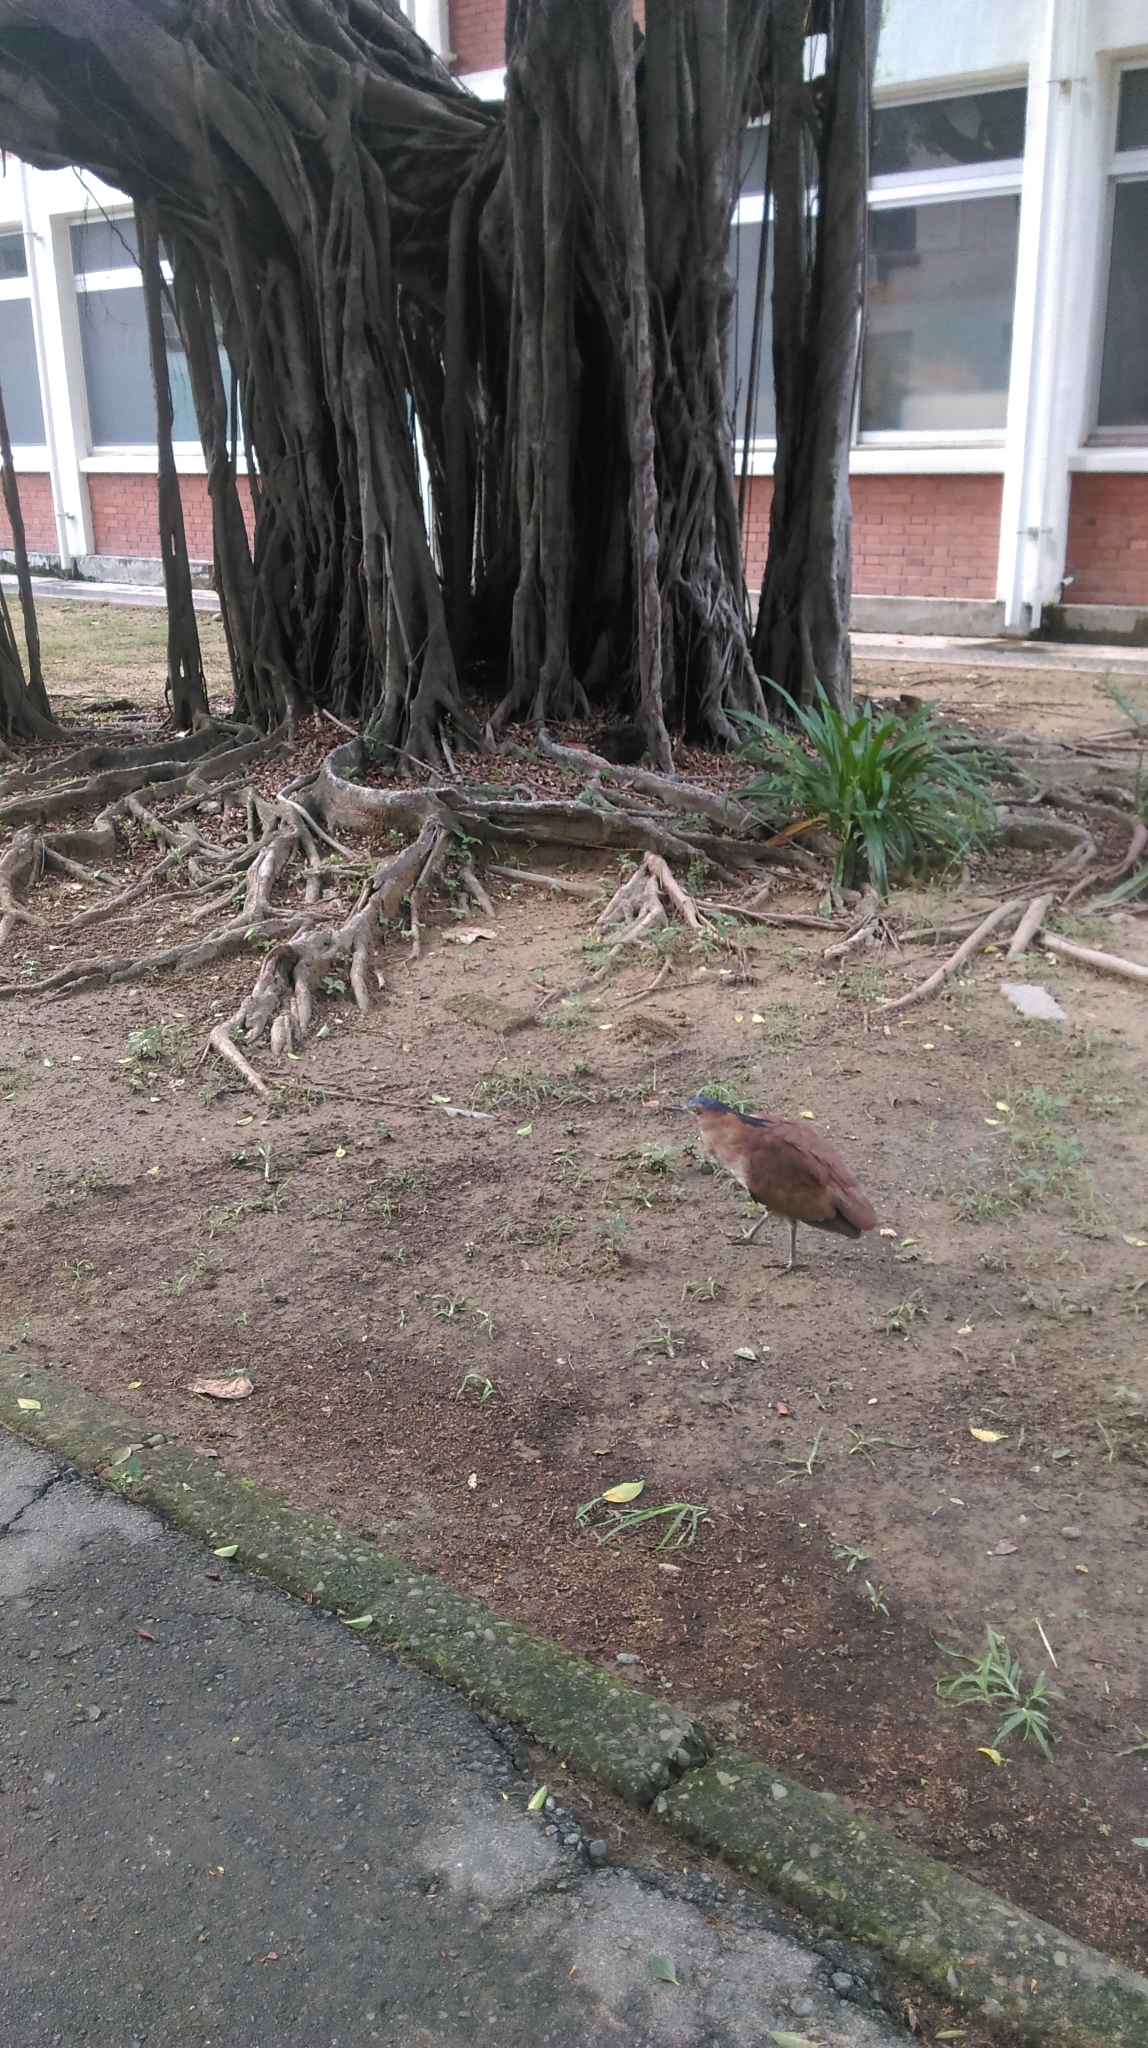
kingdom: Animalia
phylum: Chordata
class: Aves
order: Pelecaniformes
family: Ardeidae
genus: Gorsachius
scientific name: Gorsachius melanolophus
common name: Malayan night heron
